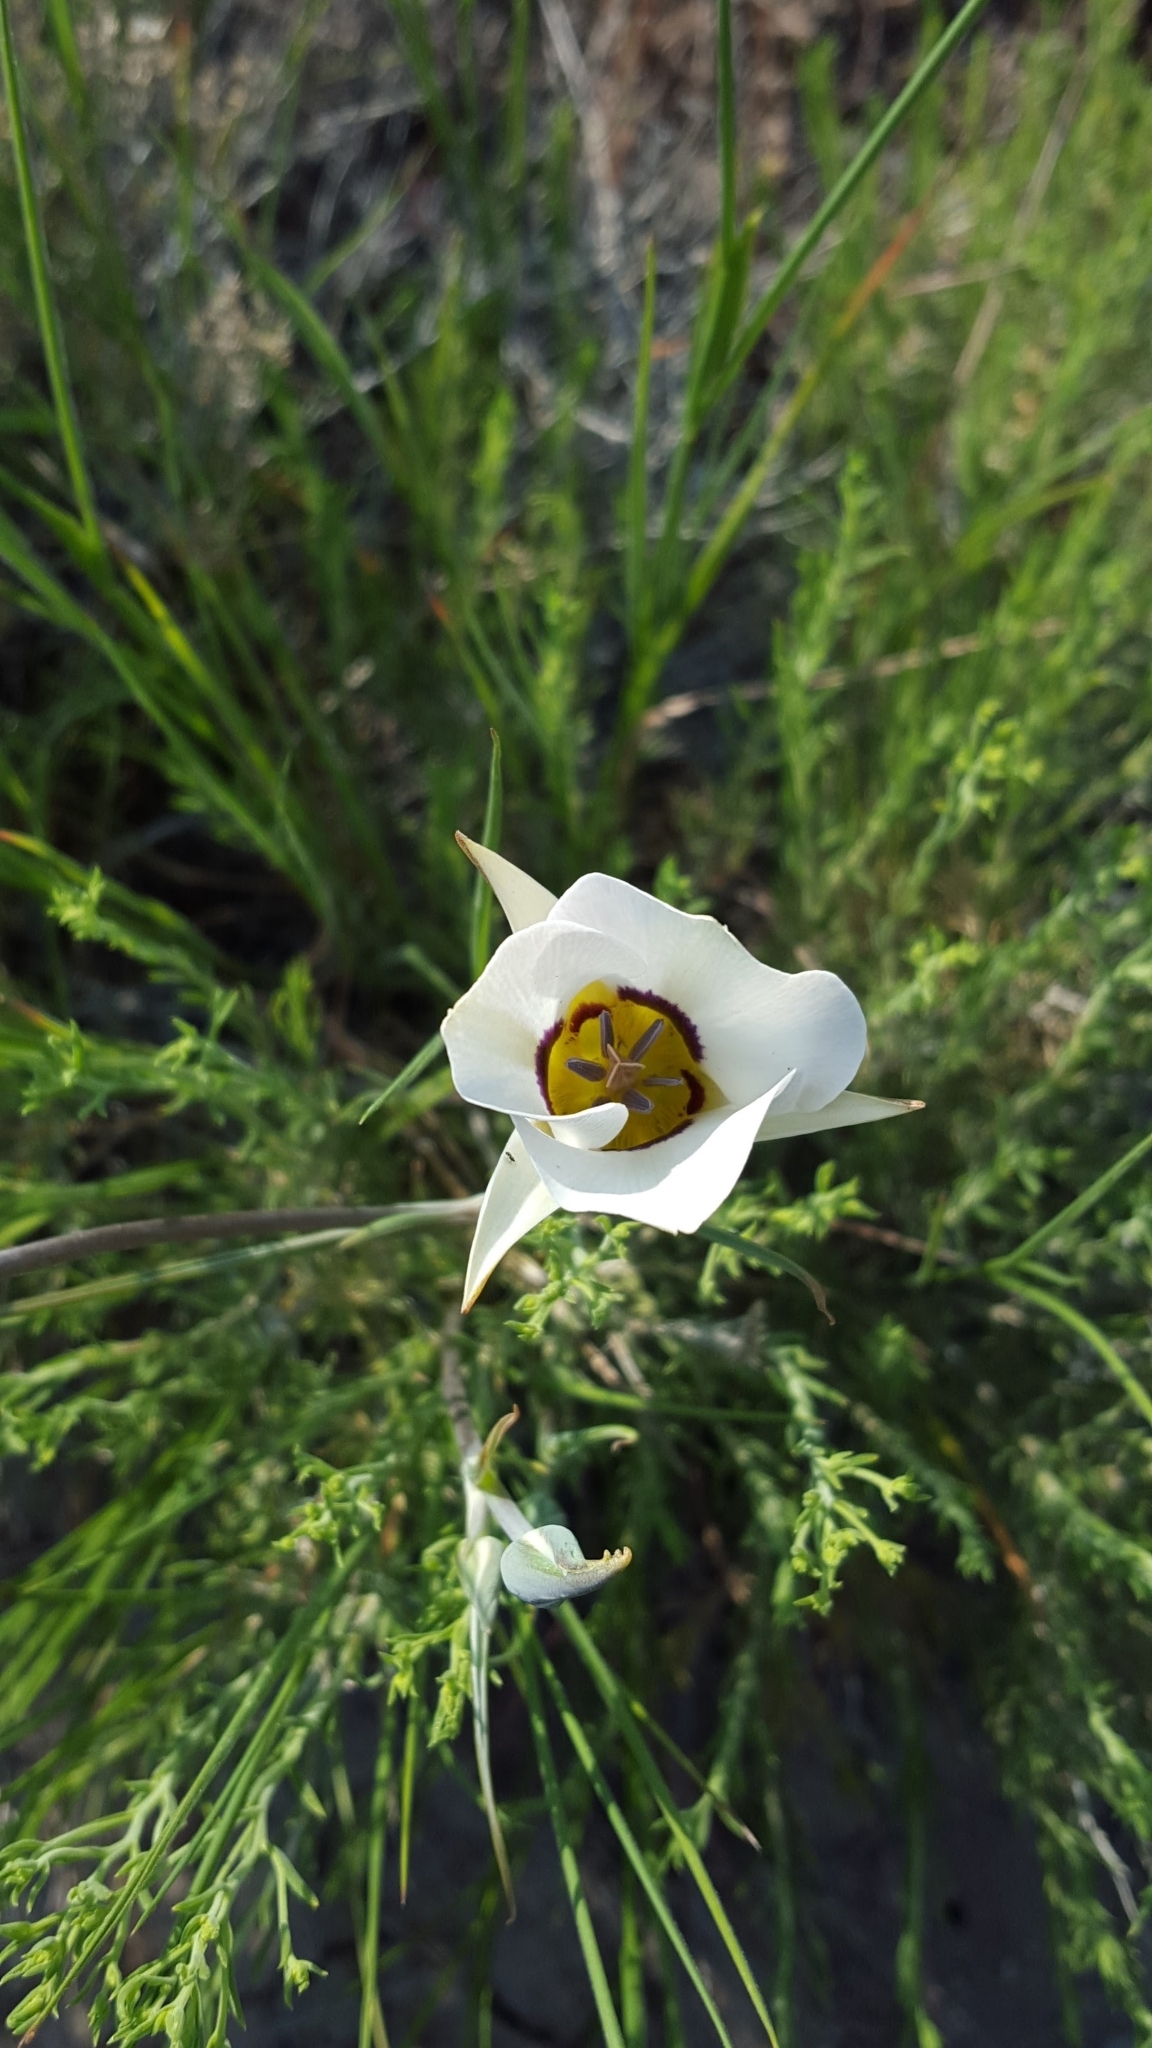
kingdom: Plantae
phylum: Tracheophyta
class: Liliopsida
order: Liliales
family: Liliaceae
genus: Calochortus
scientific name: Calochortus bruneaunis
